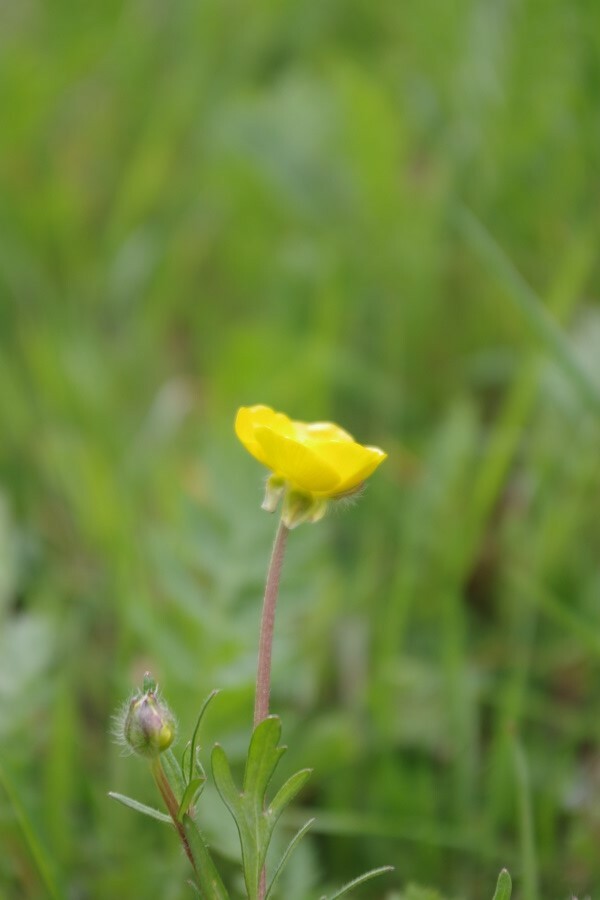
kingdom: Plantae
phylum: Tracheophyta
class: Magnoliopsida
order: Ranunculales
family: Ranunculaceae
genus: Ranunculus
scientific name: Ranunculus bulbosus
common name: Bulbous buttercup
